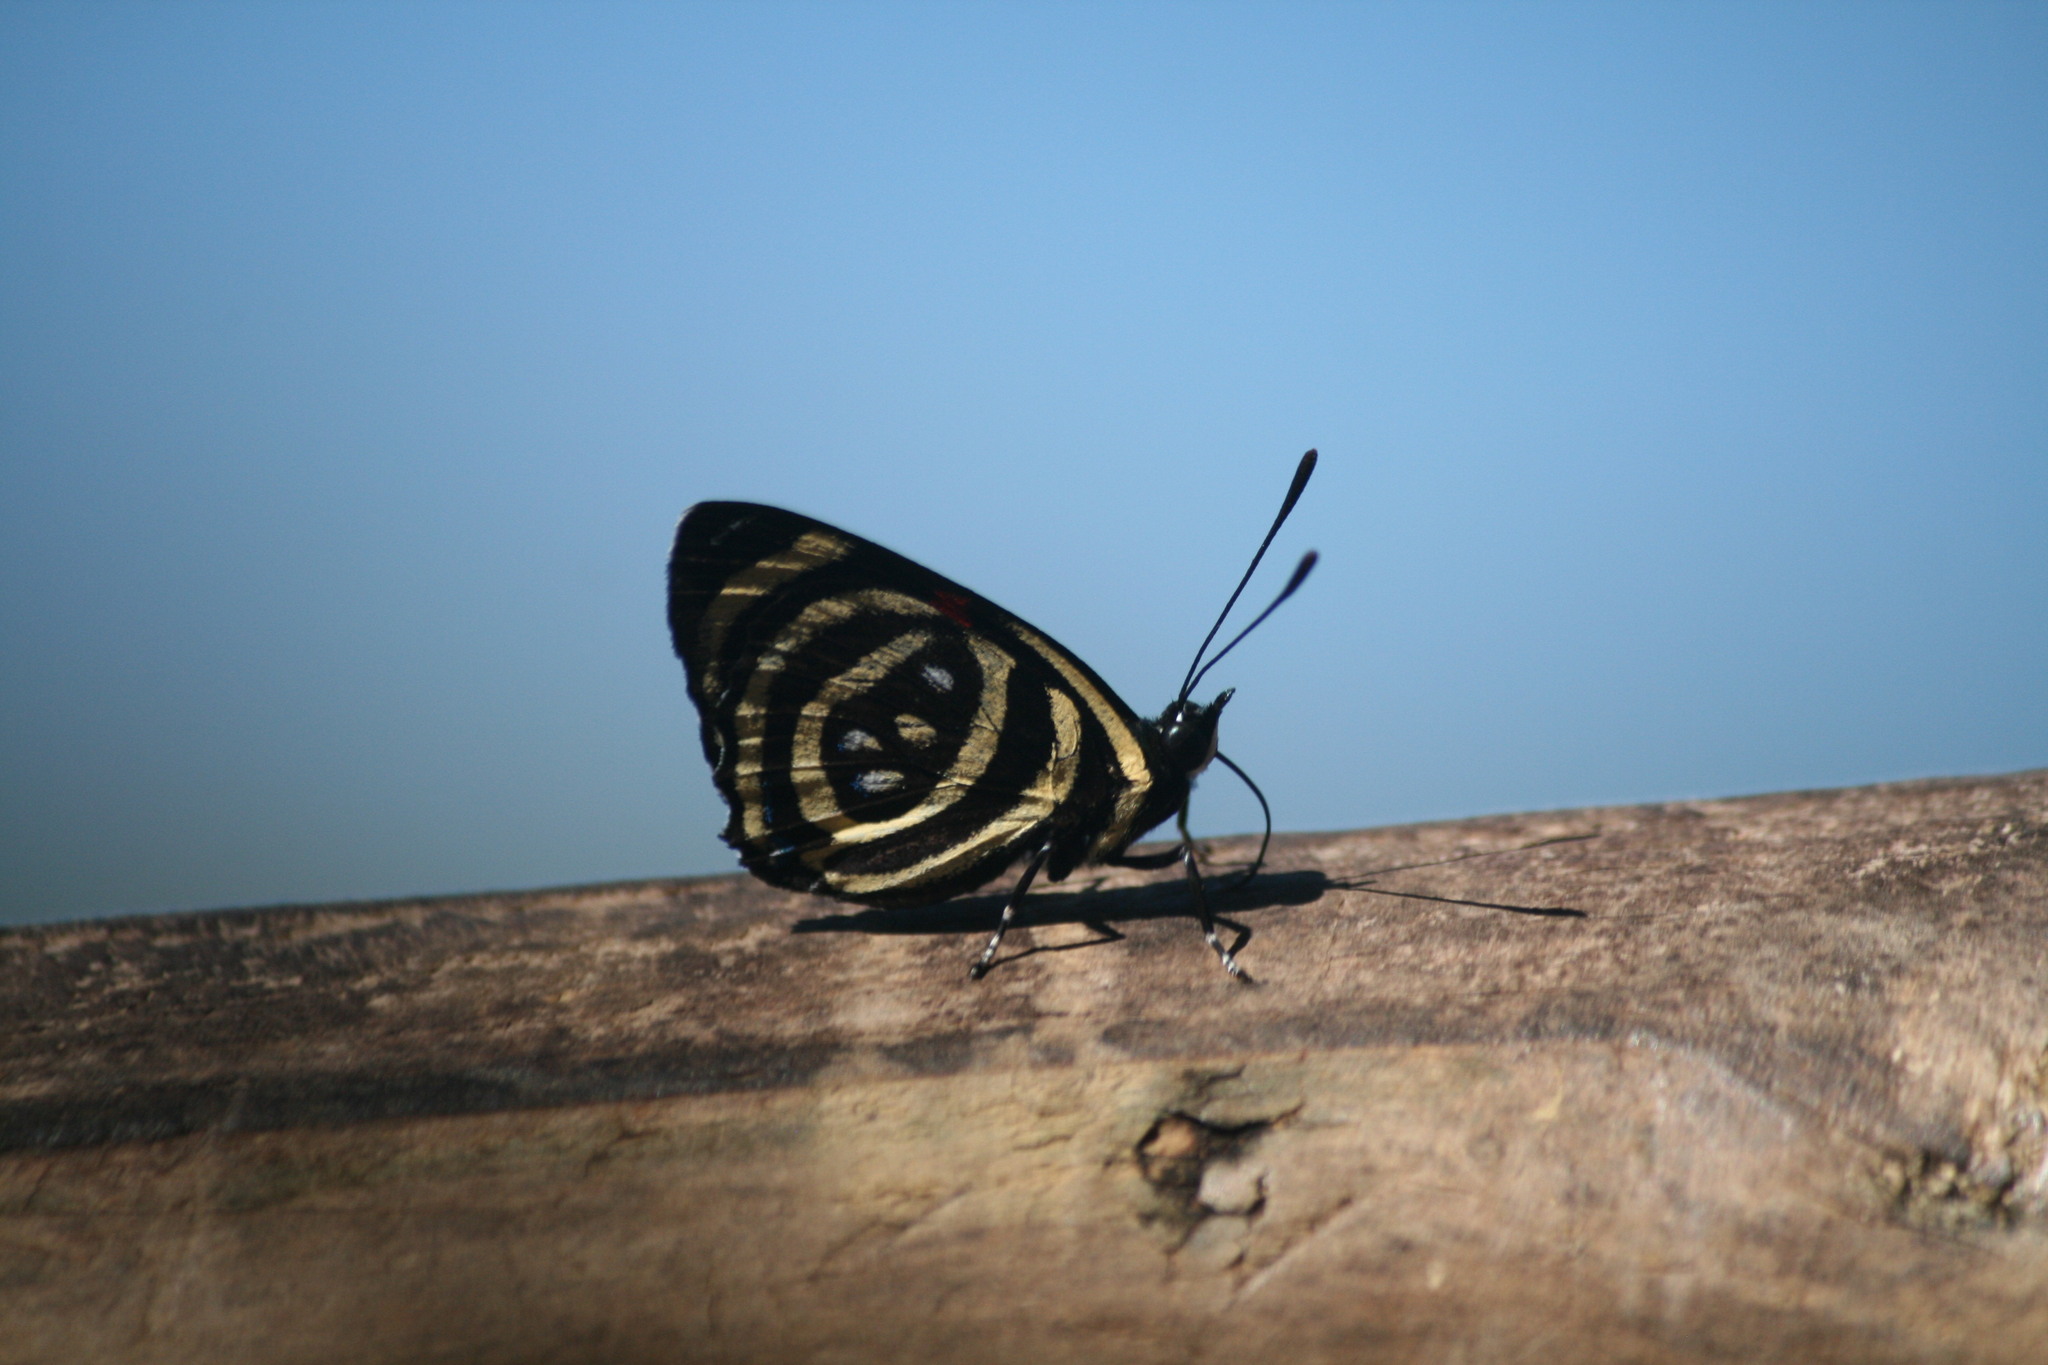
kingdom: Animalia
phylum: Arthropoda
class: Insecta
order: Lepidoptera
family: Nymphalidae
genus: Catagramma
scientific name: Catagramma Callicore hydaspes
